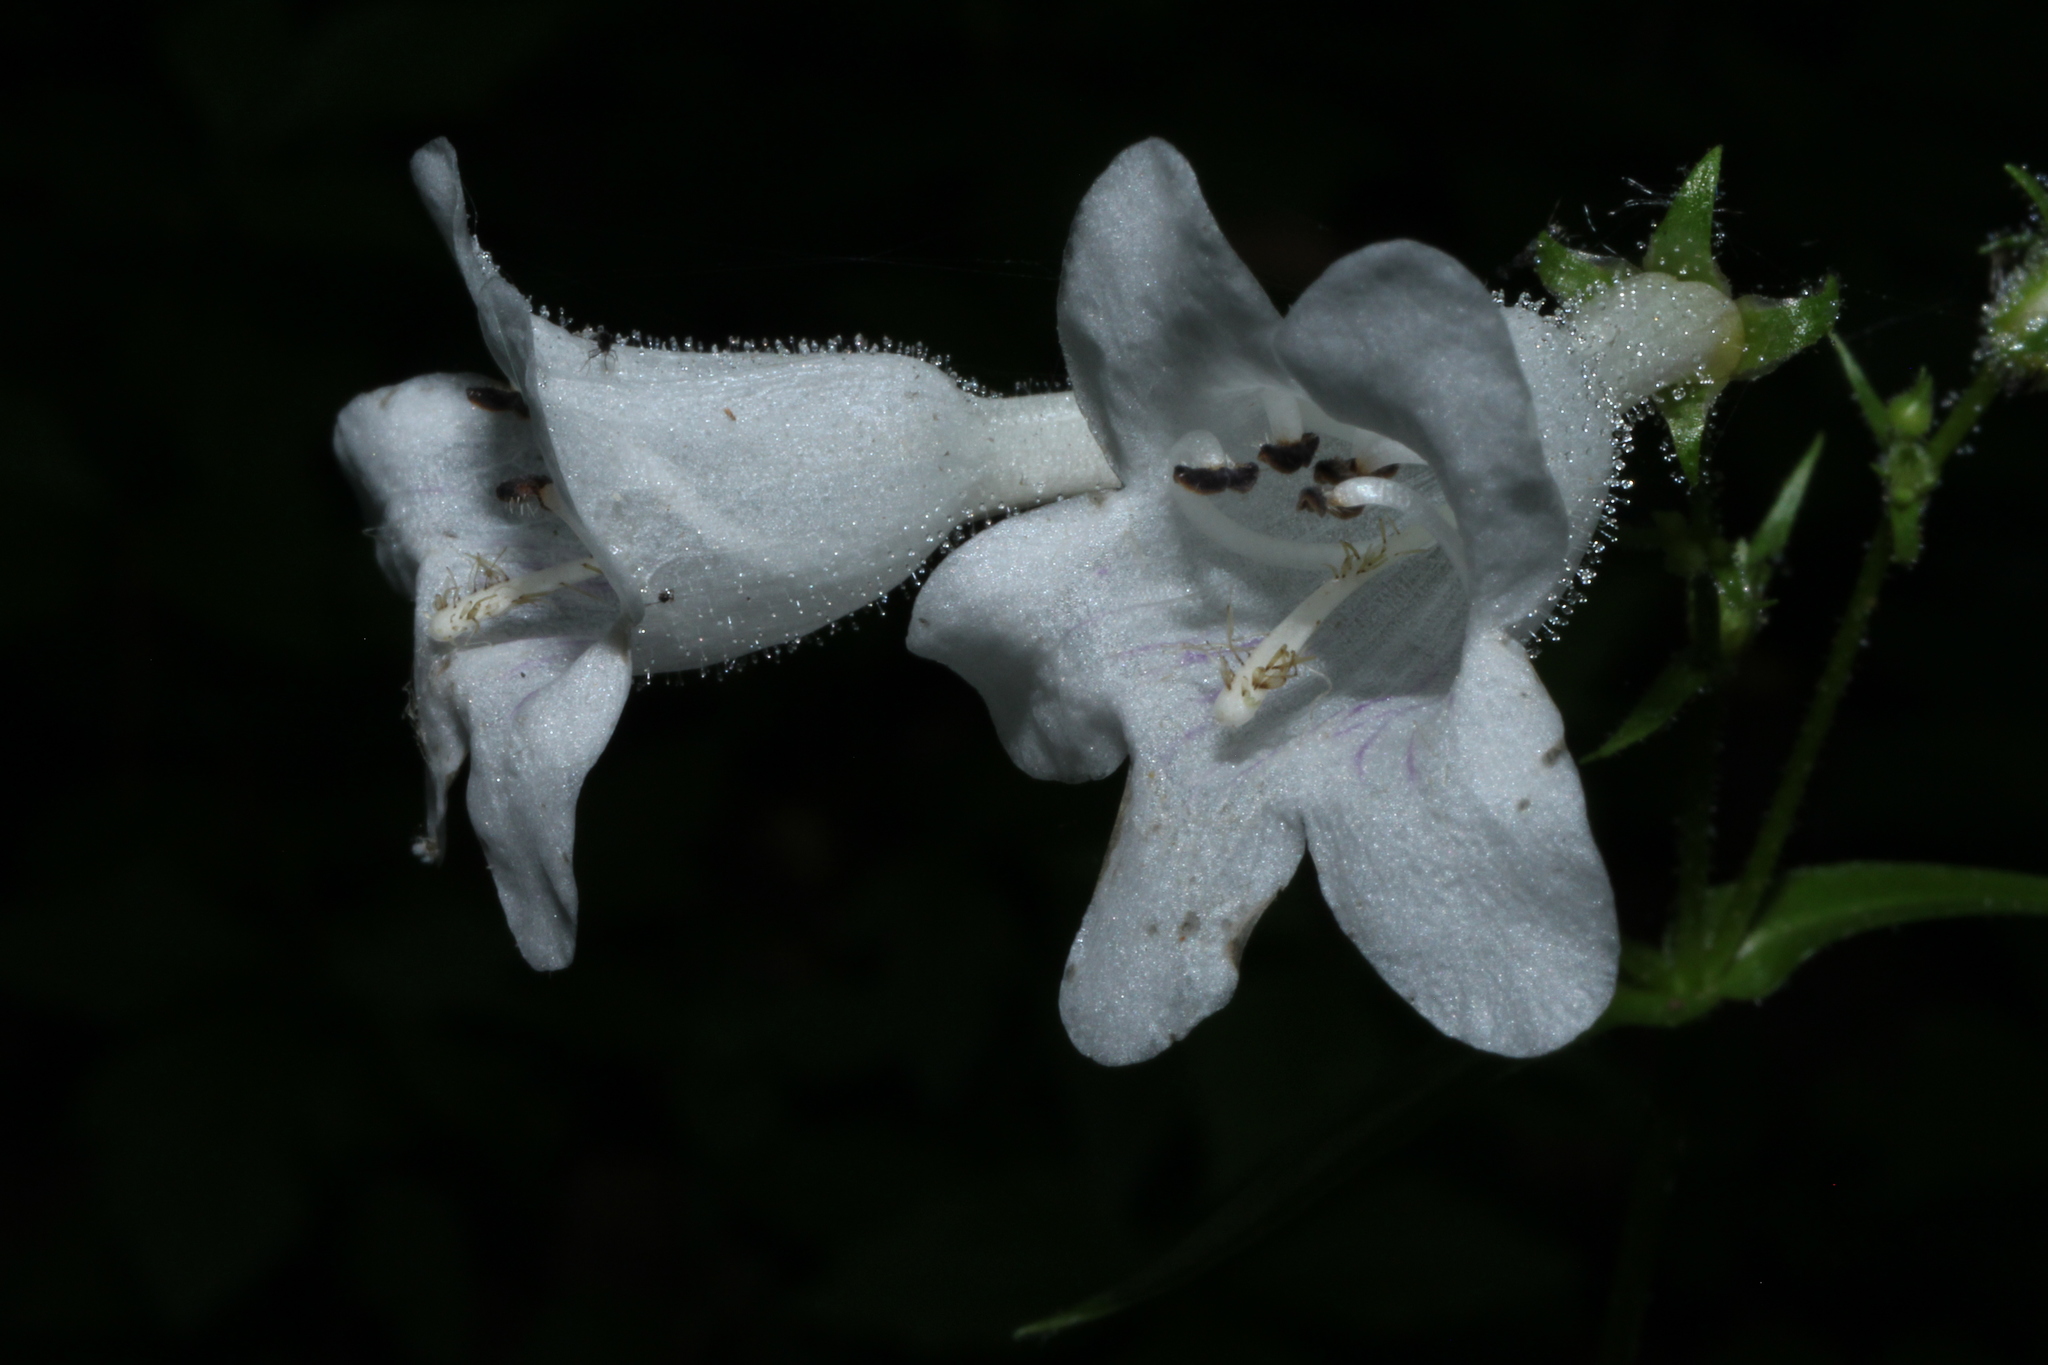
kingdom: Plantae
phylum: Tracheophyta
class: Magnoliopsida
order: Lamiales
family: Plantaginaceae
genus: Penstemon
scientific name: Penstemon digitalis
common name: Foxglove beardtongue
